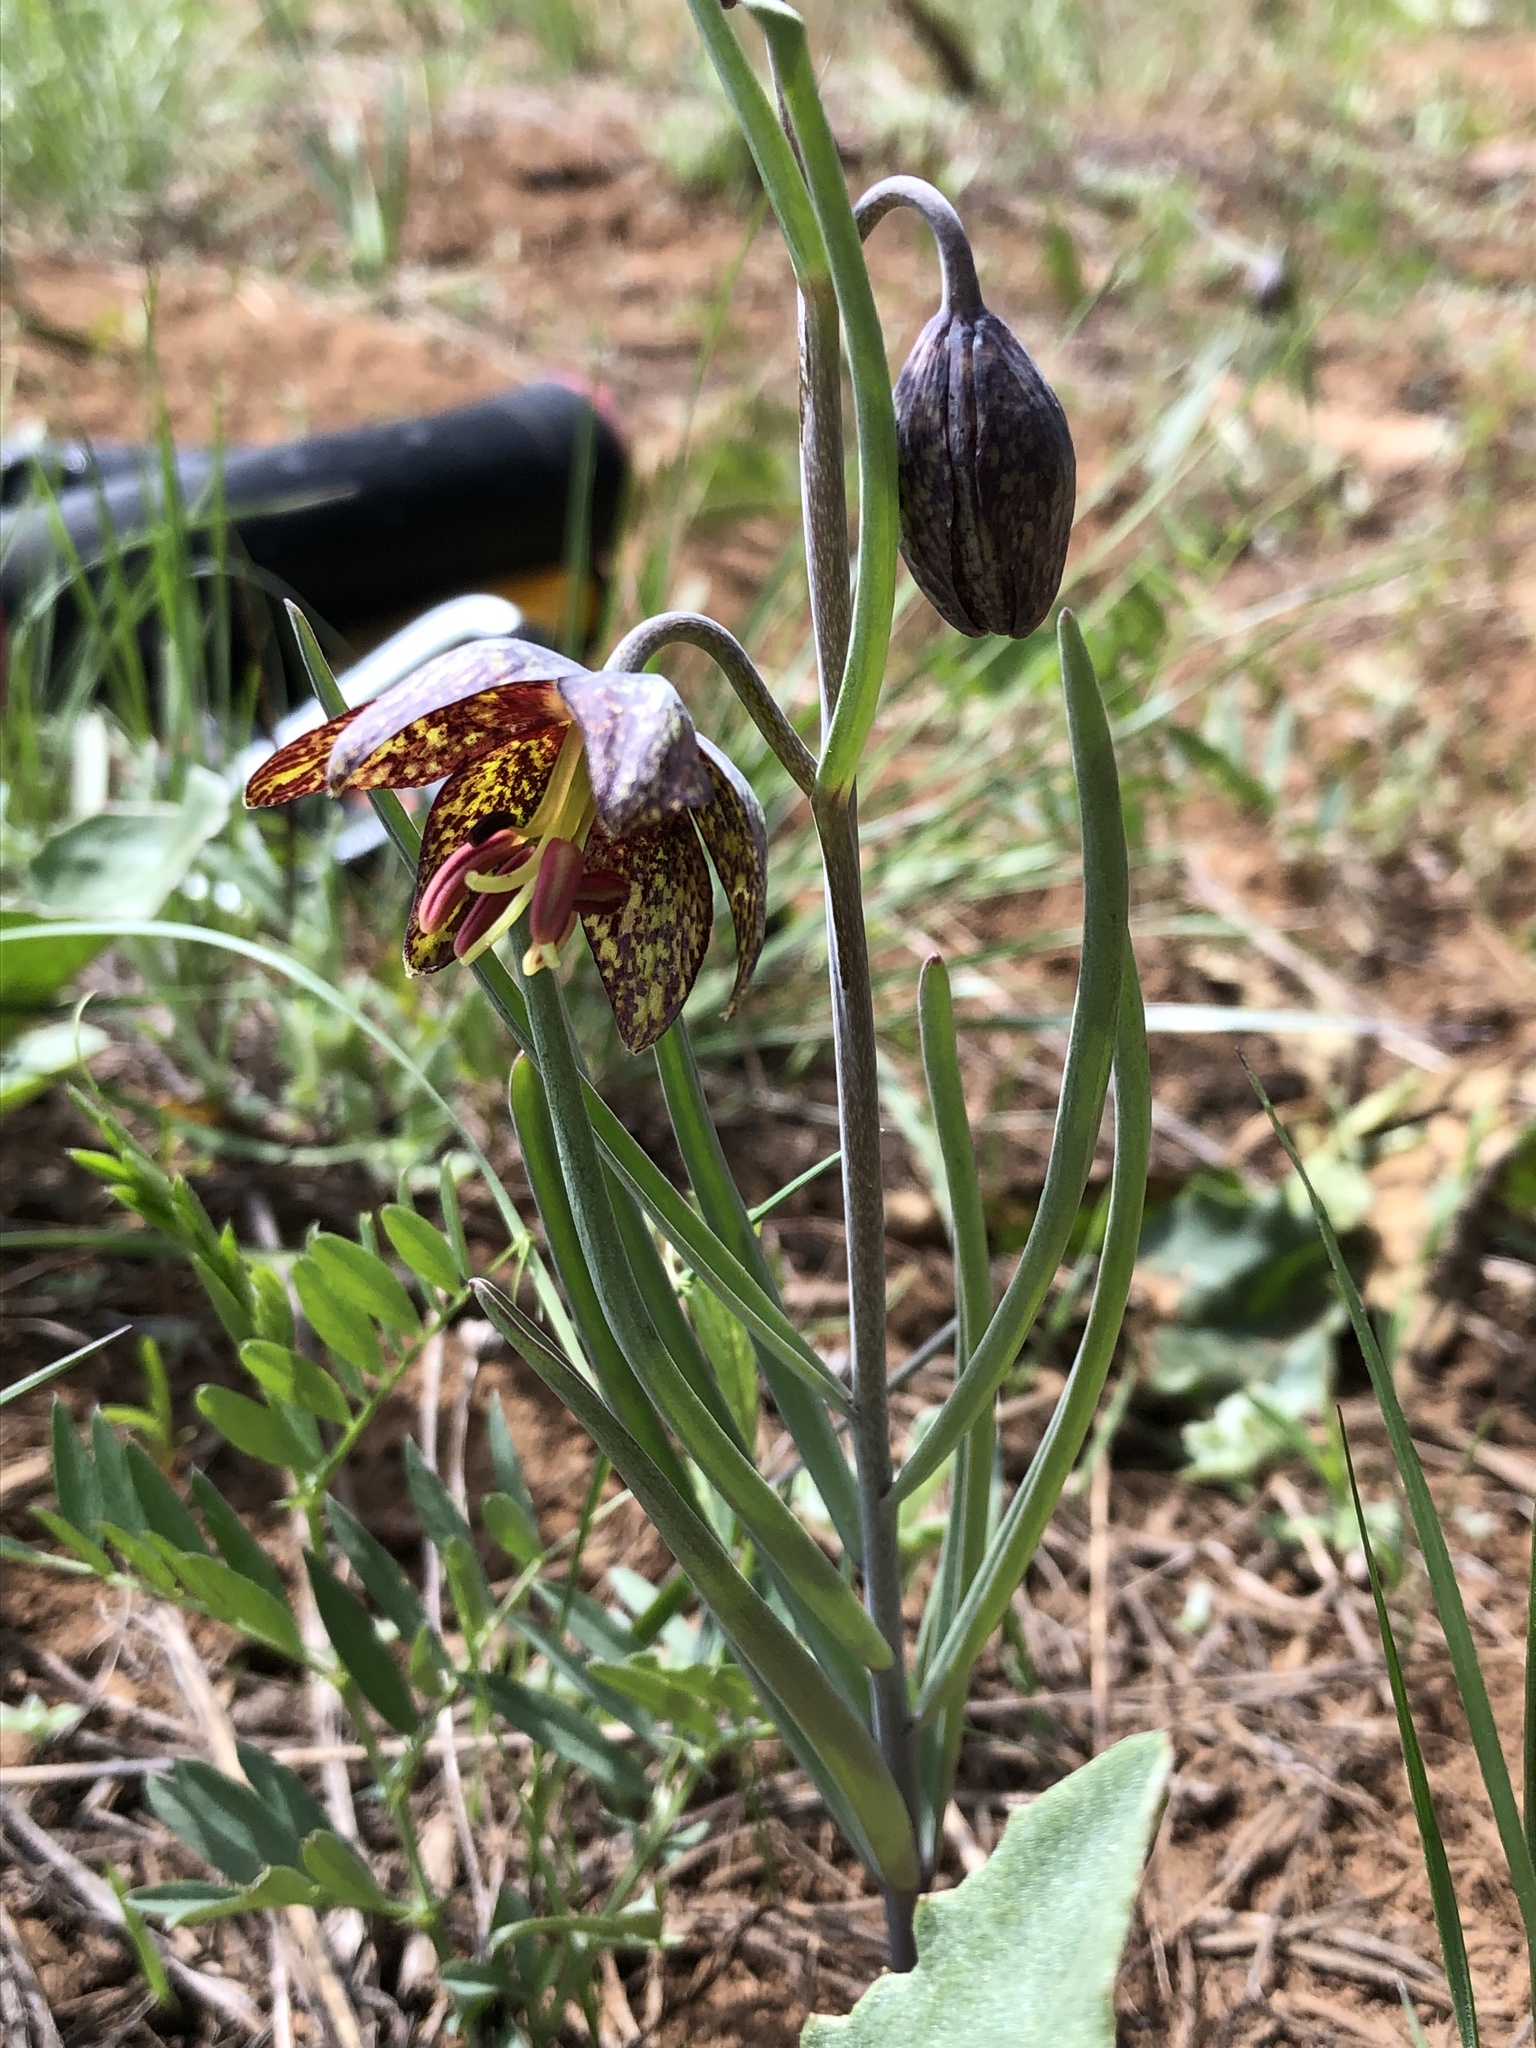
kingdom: Plantae
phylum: Tracheophyta
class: Liliopsida
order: Liliales
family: Liliaceae
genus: Fritillaria
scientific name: Fritillaria atropurpurea
